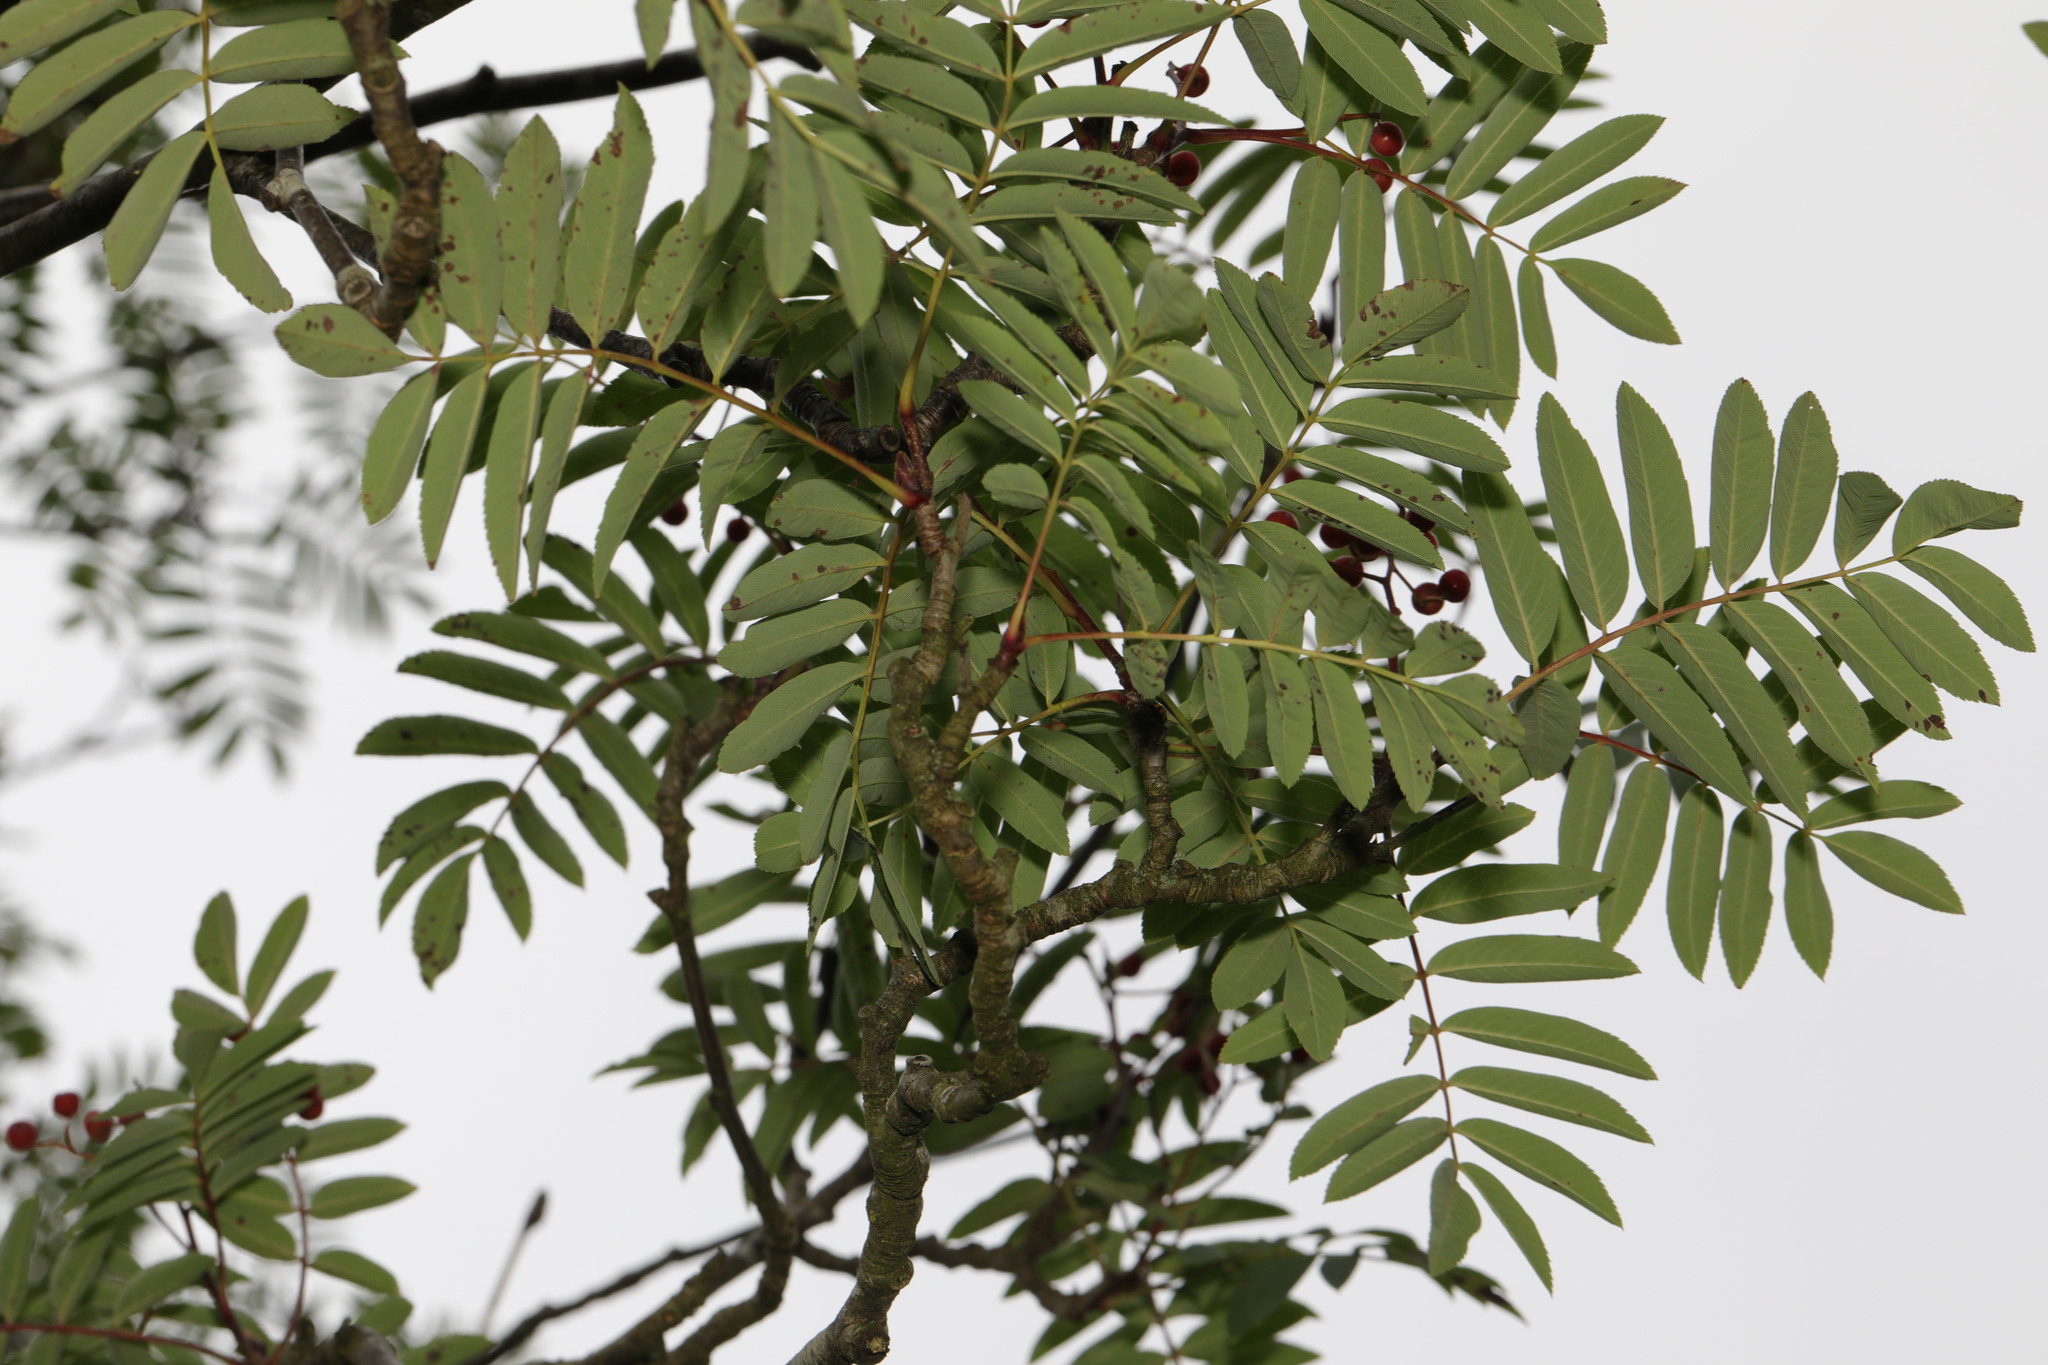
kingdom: Plantae
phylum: Tracheophyta
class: Magnoliopsida
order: Rosales
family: Rosaceae
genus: Sorbus
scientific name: Sorbus aucuparia
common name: Rowan
